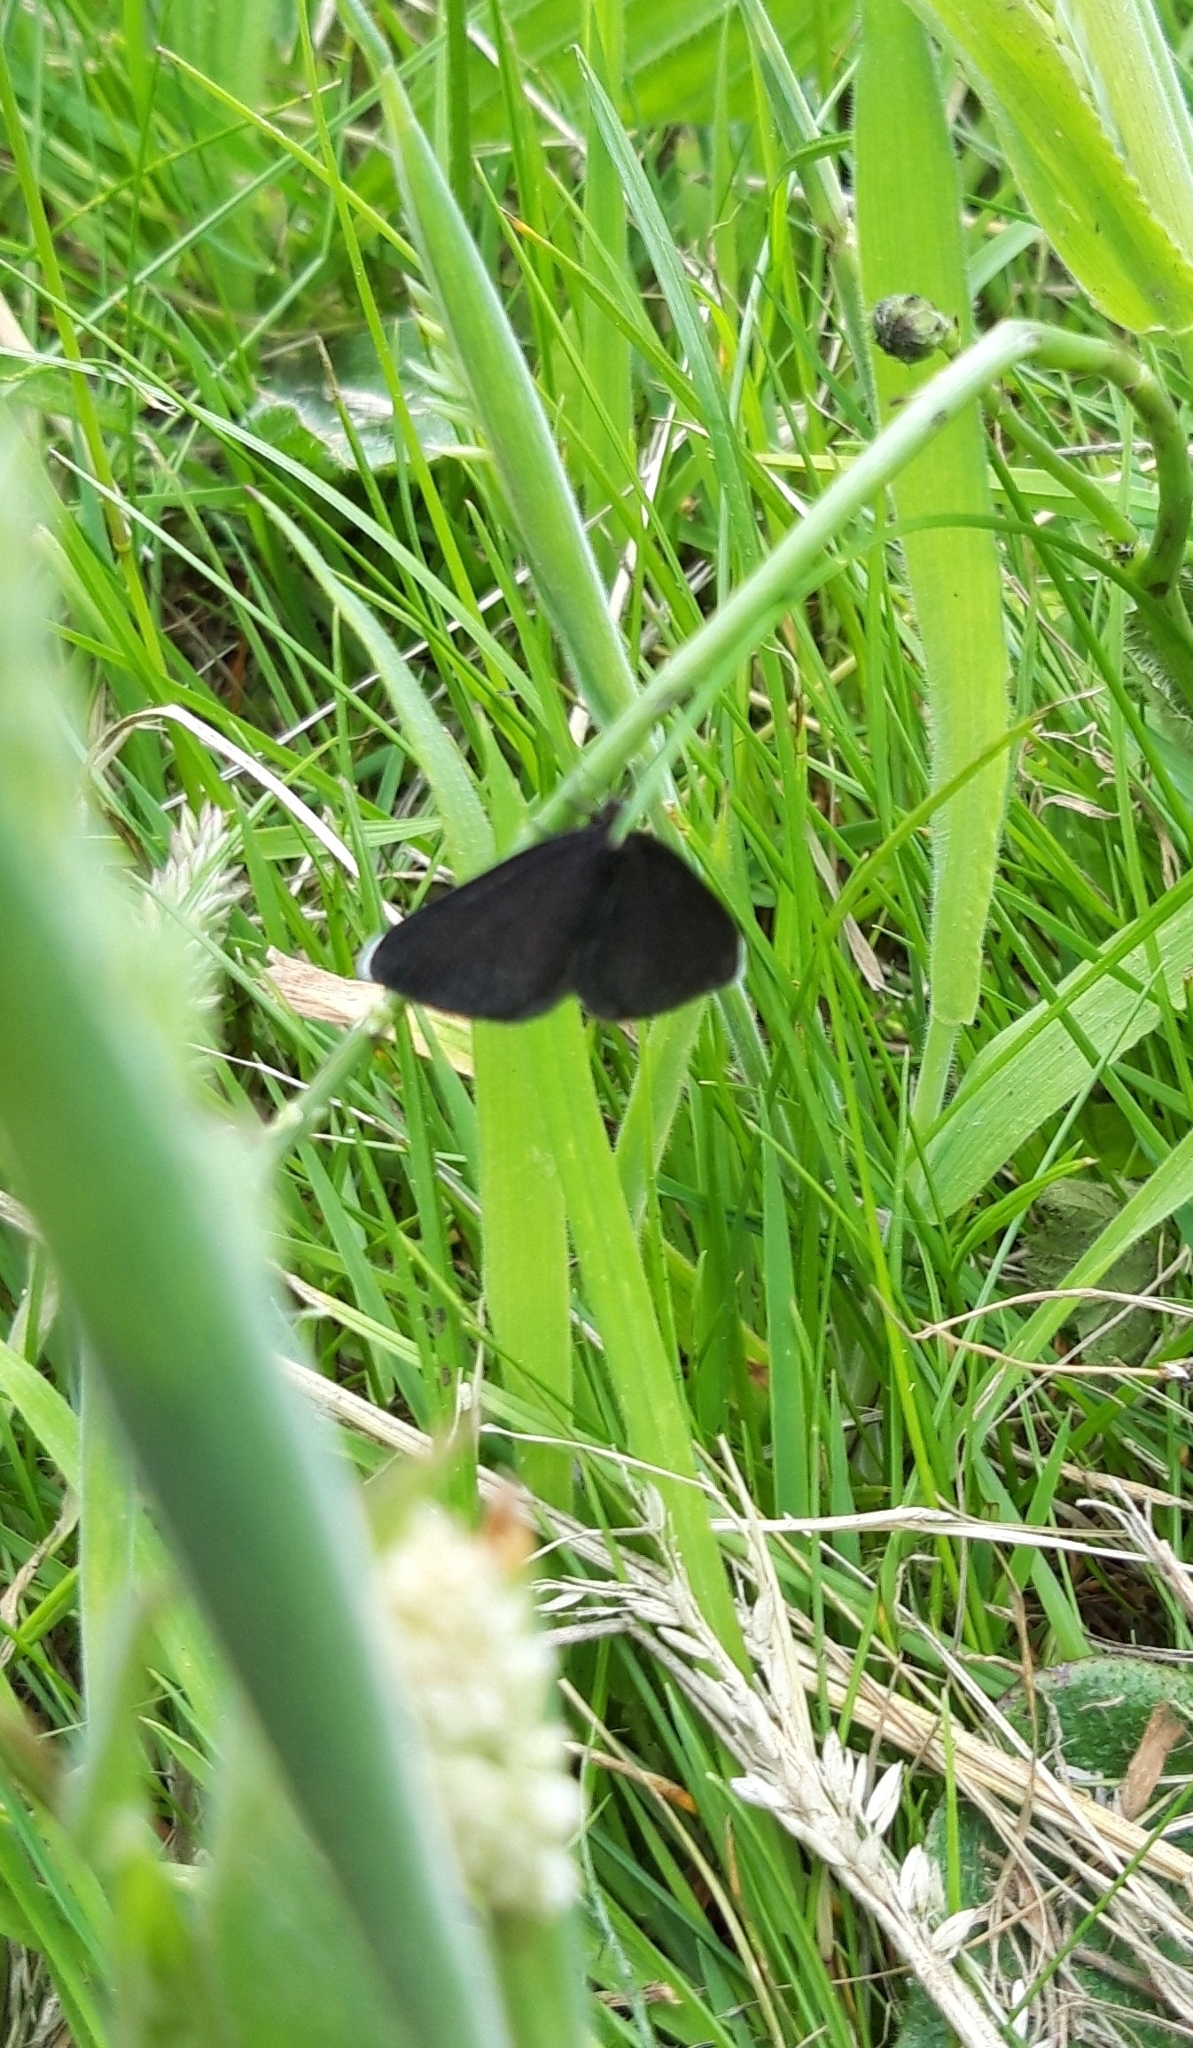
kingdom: Animalia
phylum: Arthropoda
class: Insecta
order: Lepidoptera
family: Geometridae
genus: Odezia
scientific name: Odezia atrata
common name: Chimney sweeper
